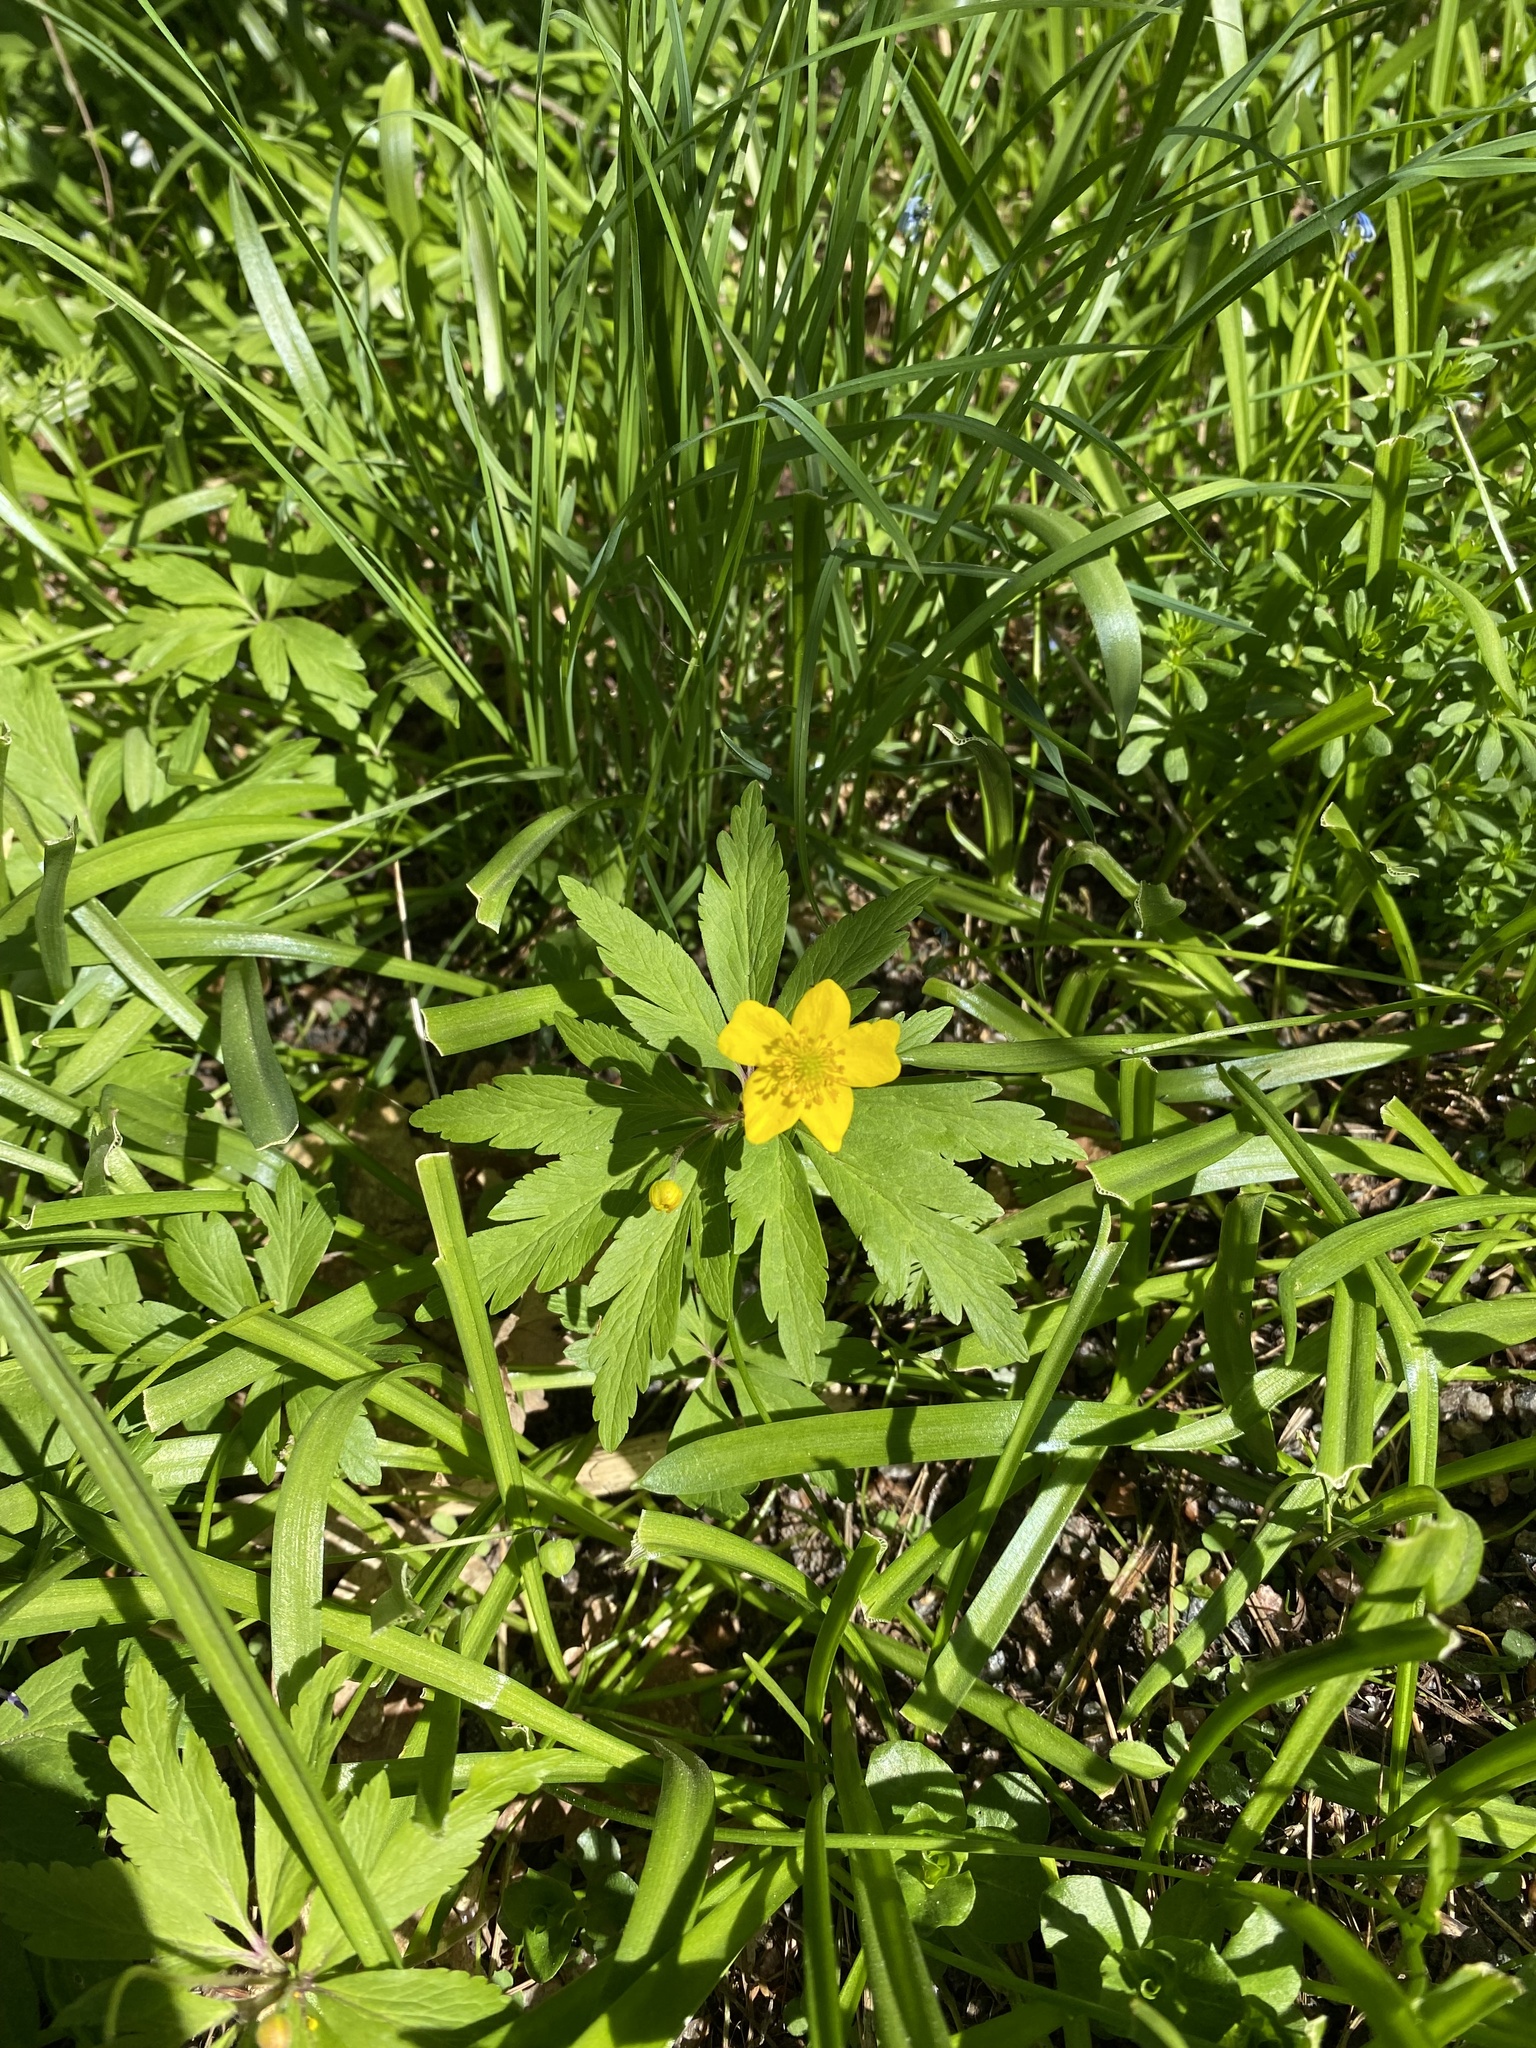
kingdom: Plantae
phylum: Tracheophyta
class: Magnoliopsida
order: Ranunculales
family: Ranunculaceae
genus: Anemone
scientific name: Anemone ranunculoides
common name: Yellow anemone
